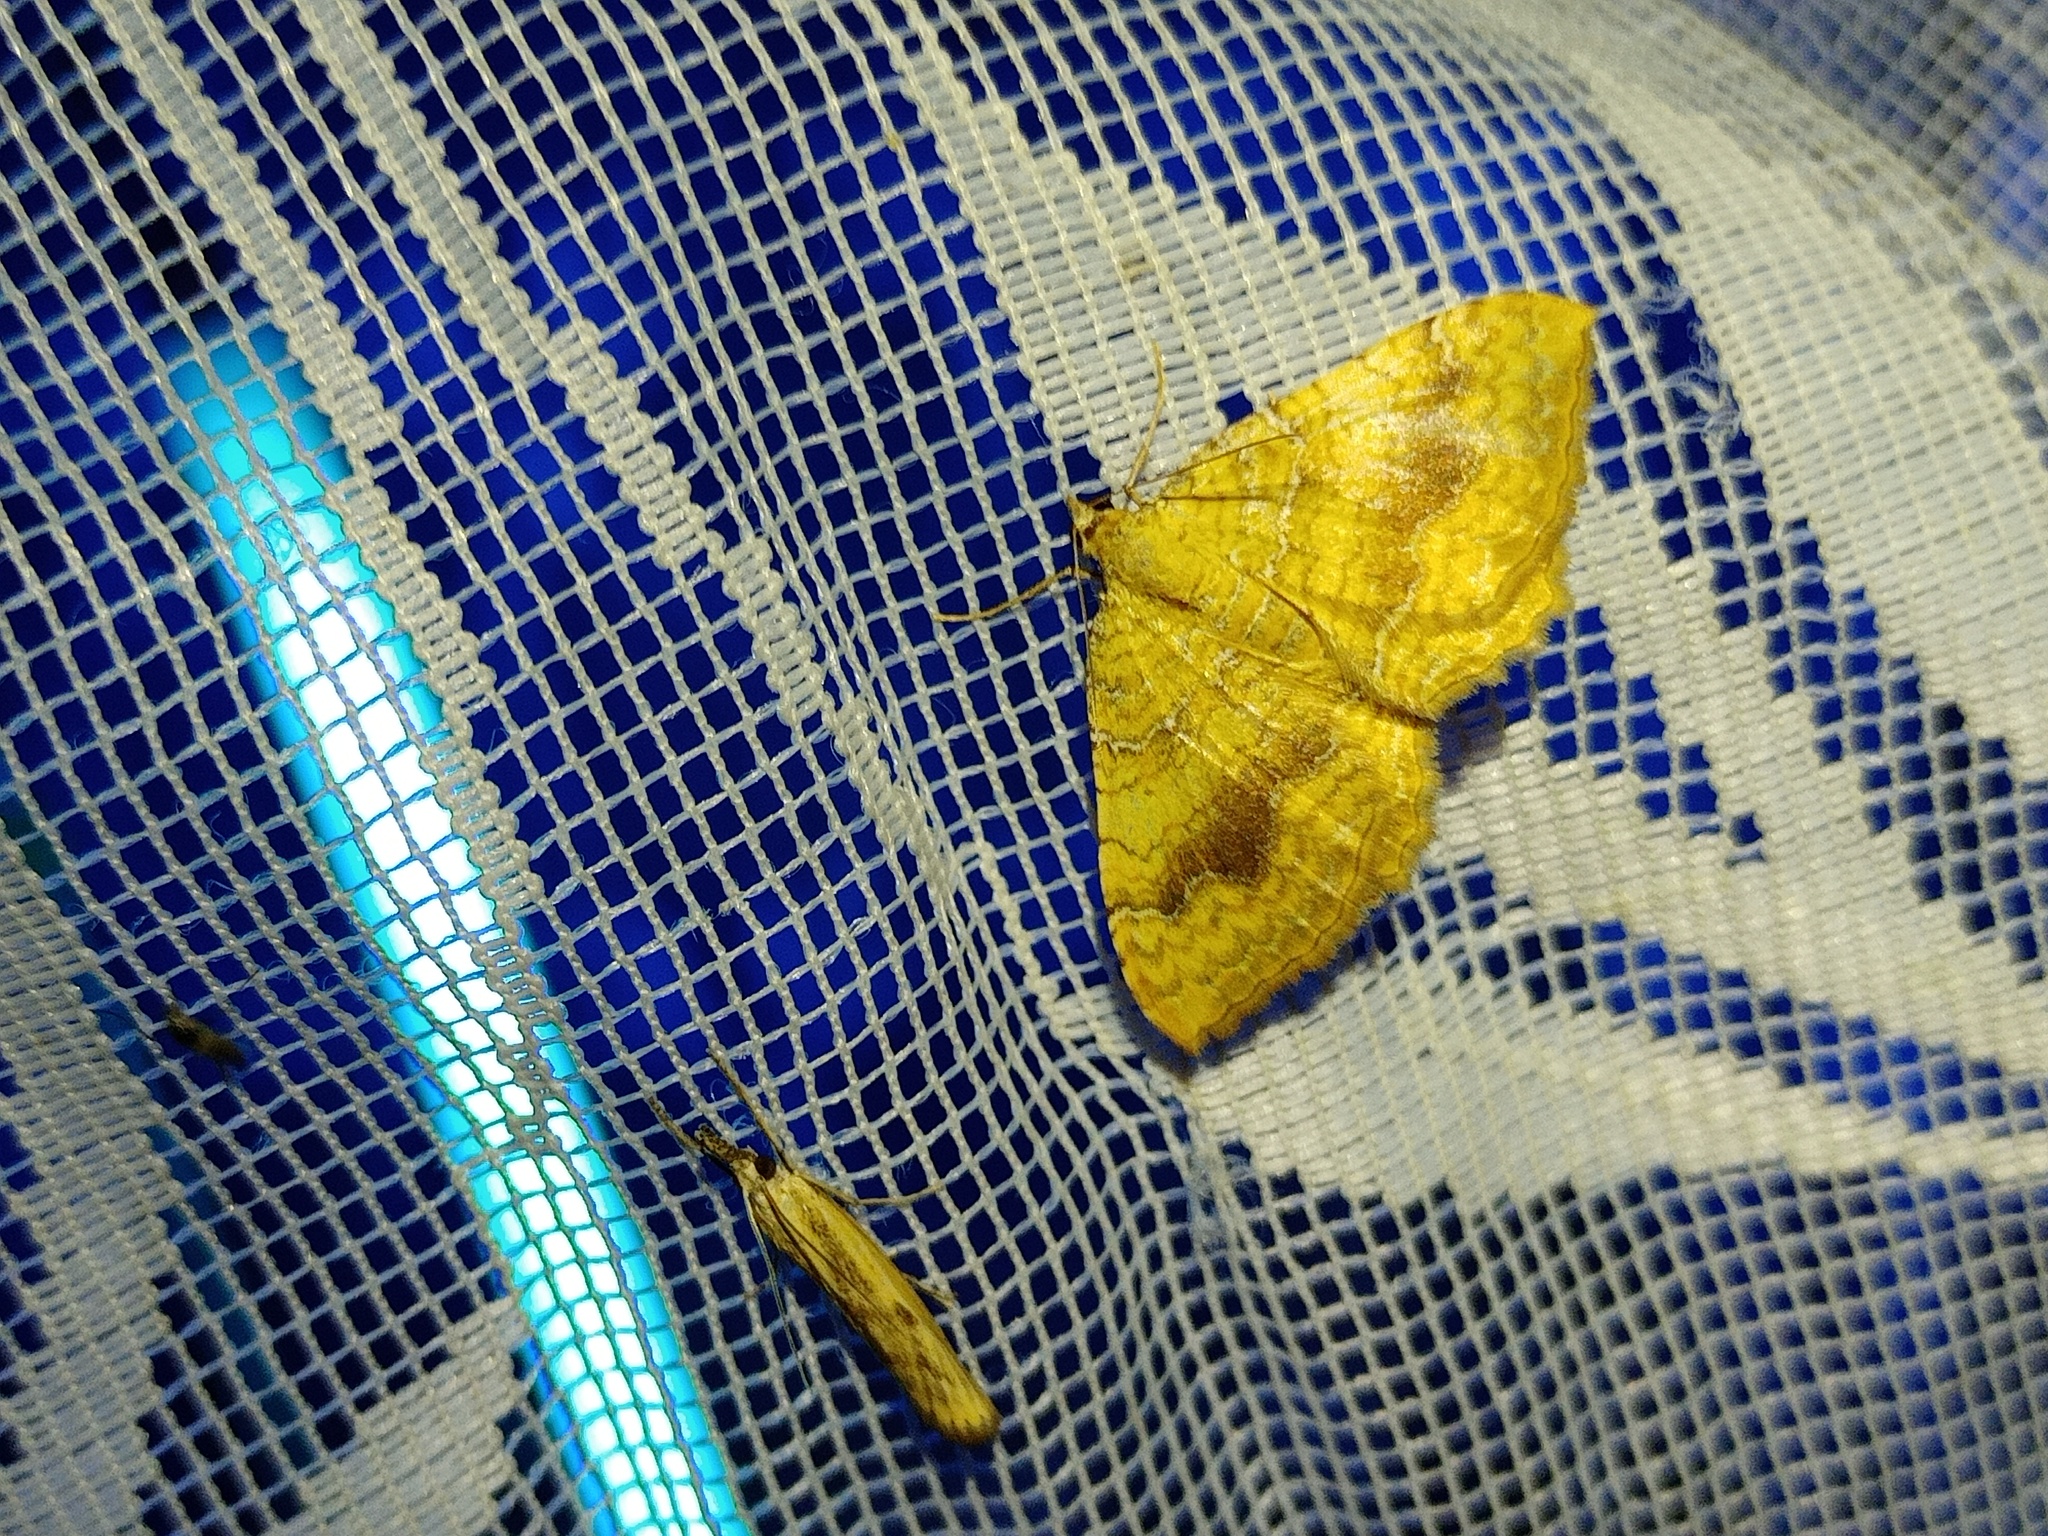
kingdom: Animalia
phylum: Arthropoda
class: Insecta
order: Lepidoptera
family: Geometridae
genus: Camptogramma
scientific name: Camptogramma bilineata
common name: Yellow shell
